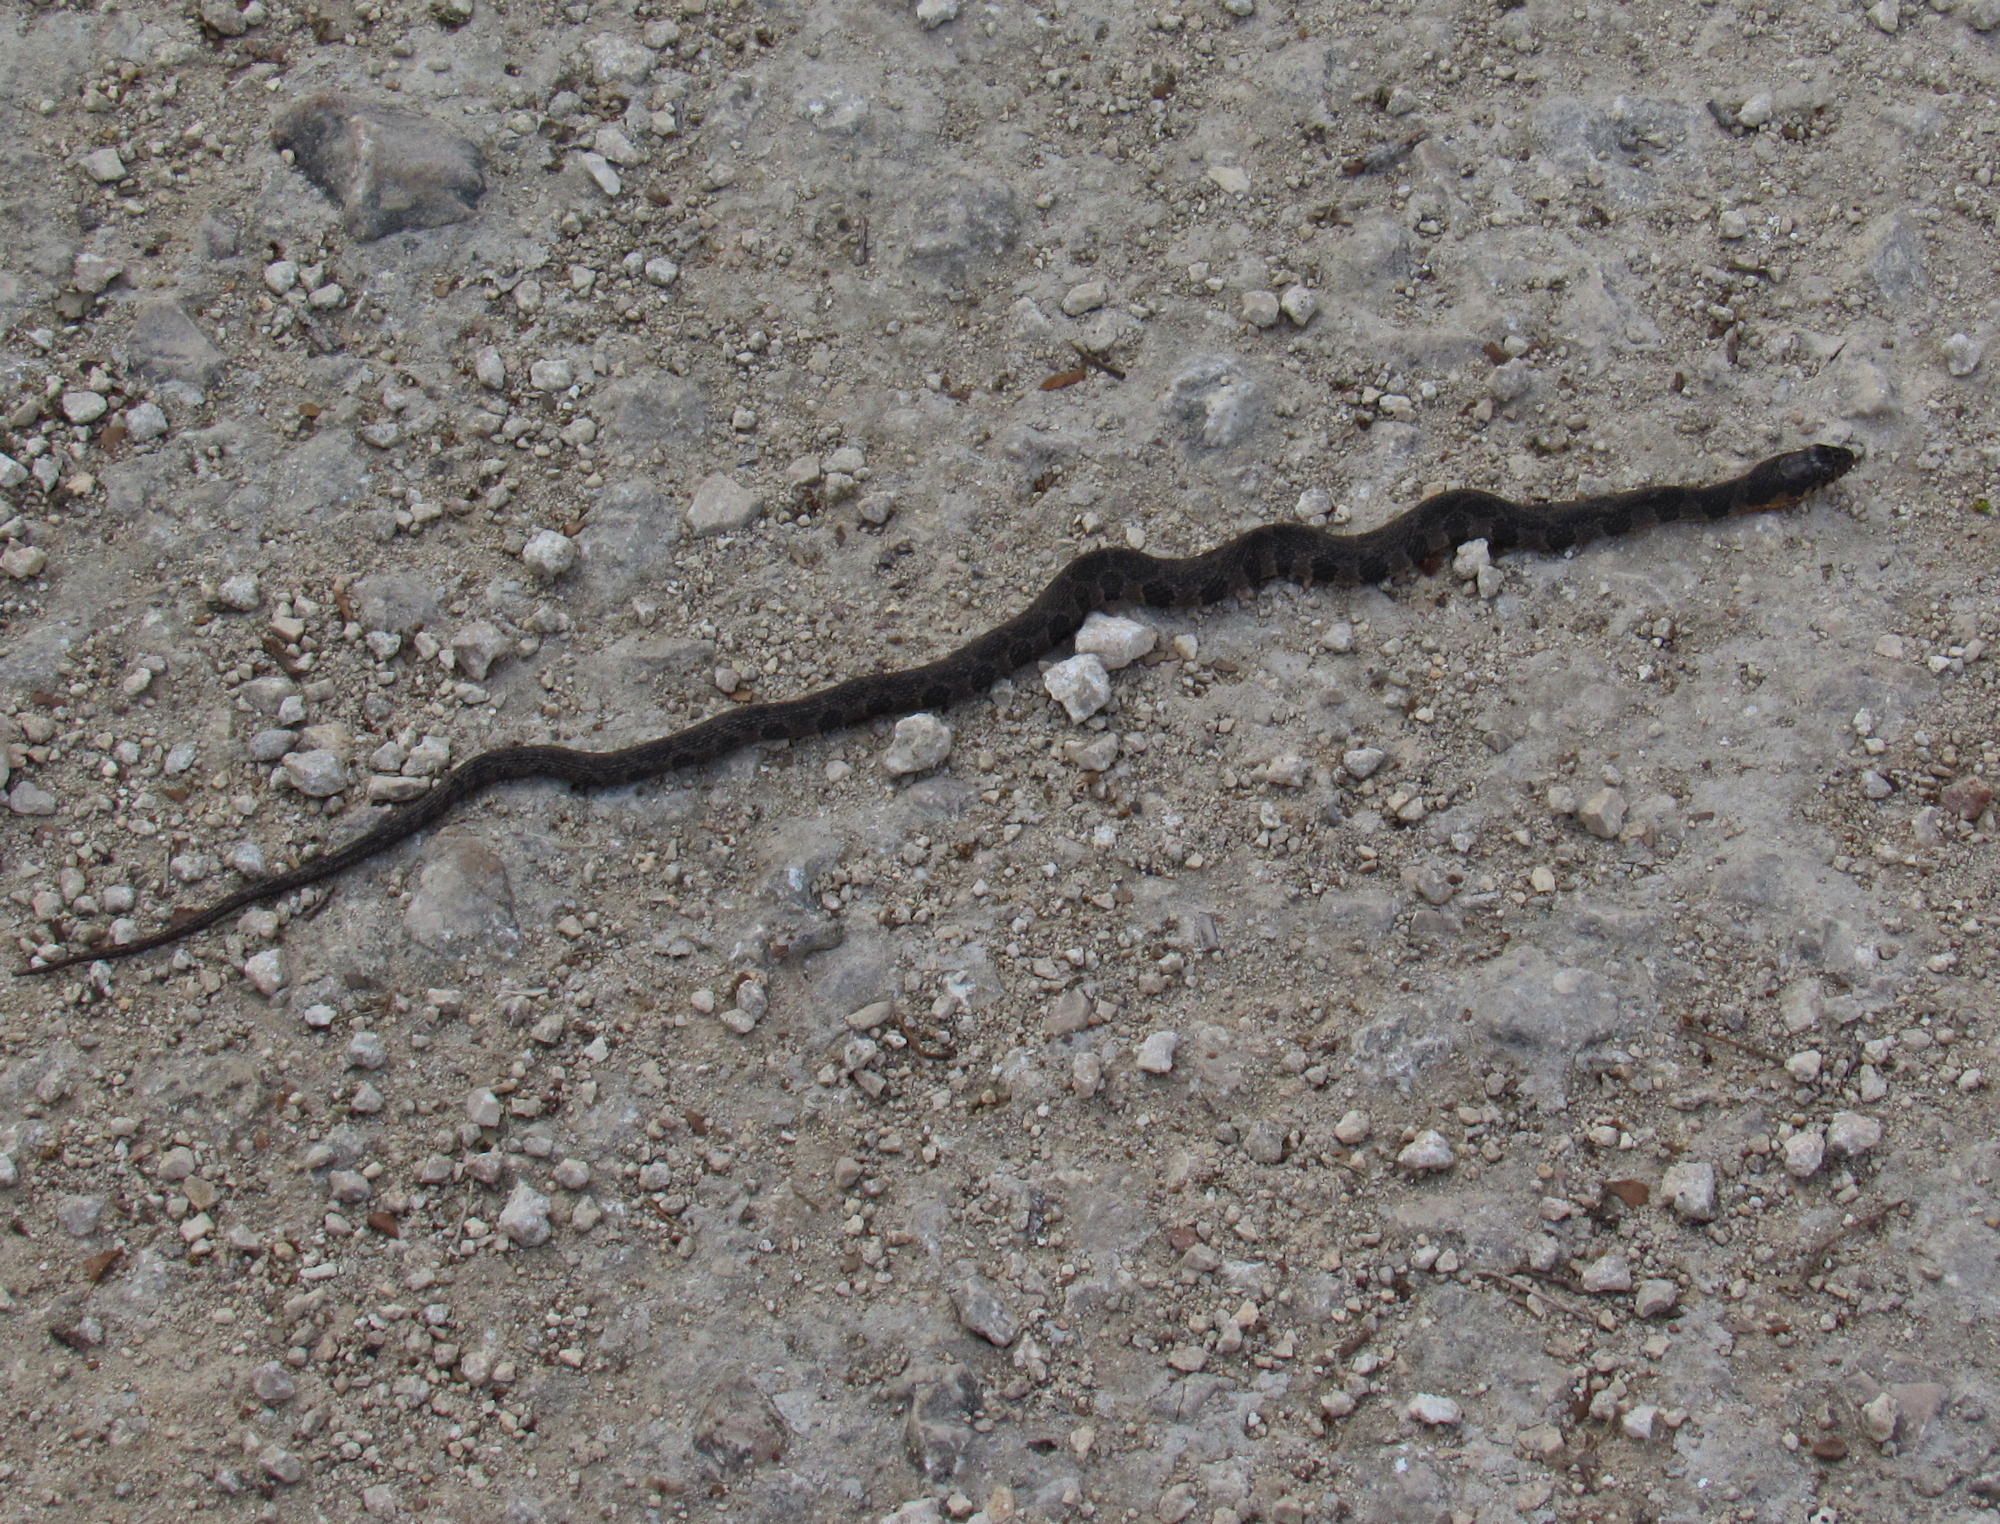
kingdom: Animalia
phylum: Chordata
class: Squamata
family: Colubridae
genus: Nerodia
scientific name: Nerodia erythrogaster
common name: Plainbelly water snake
